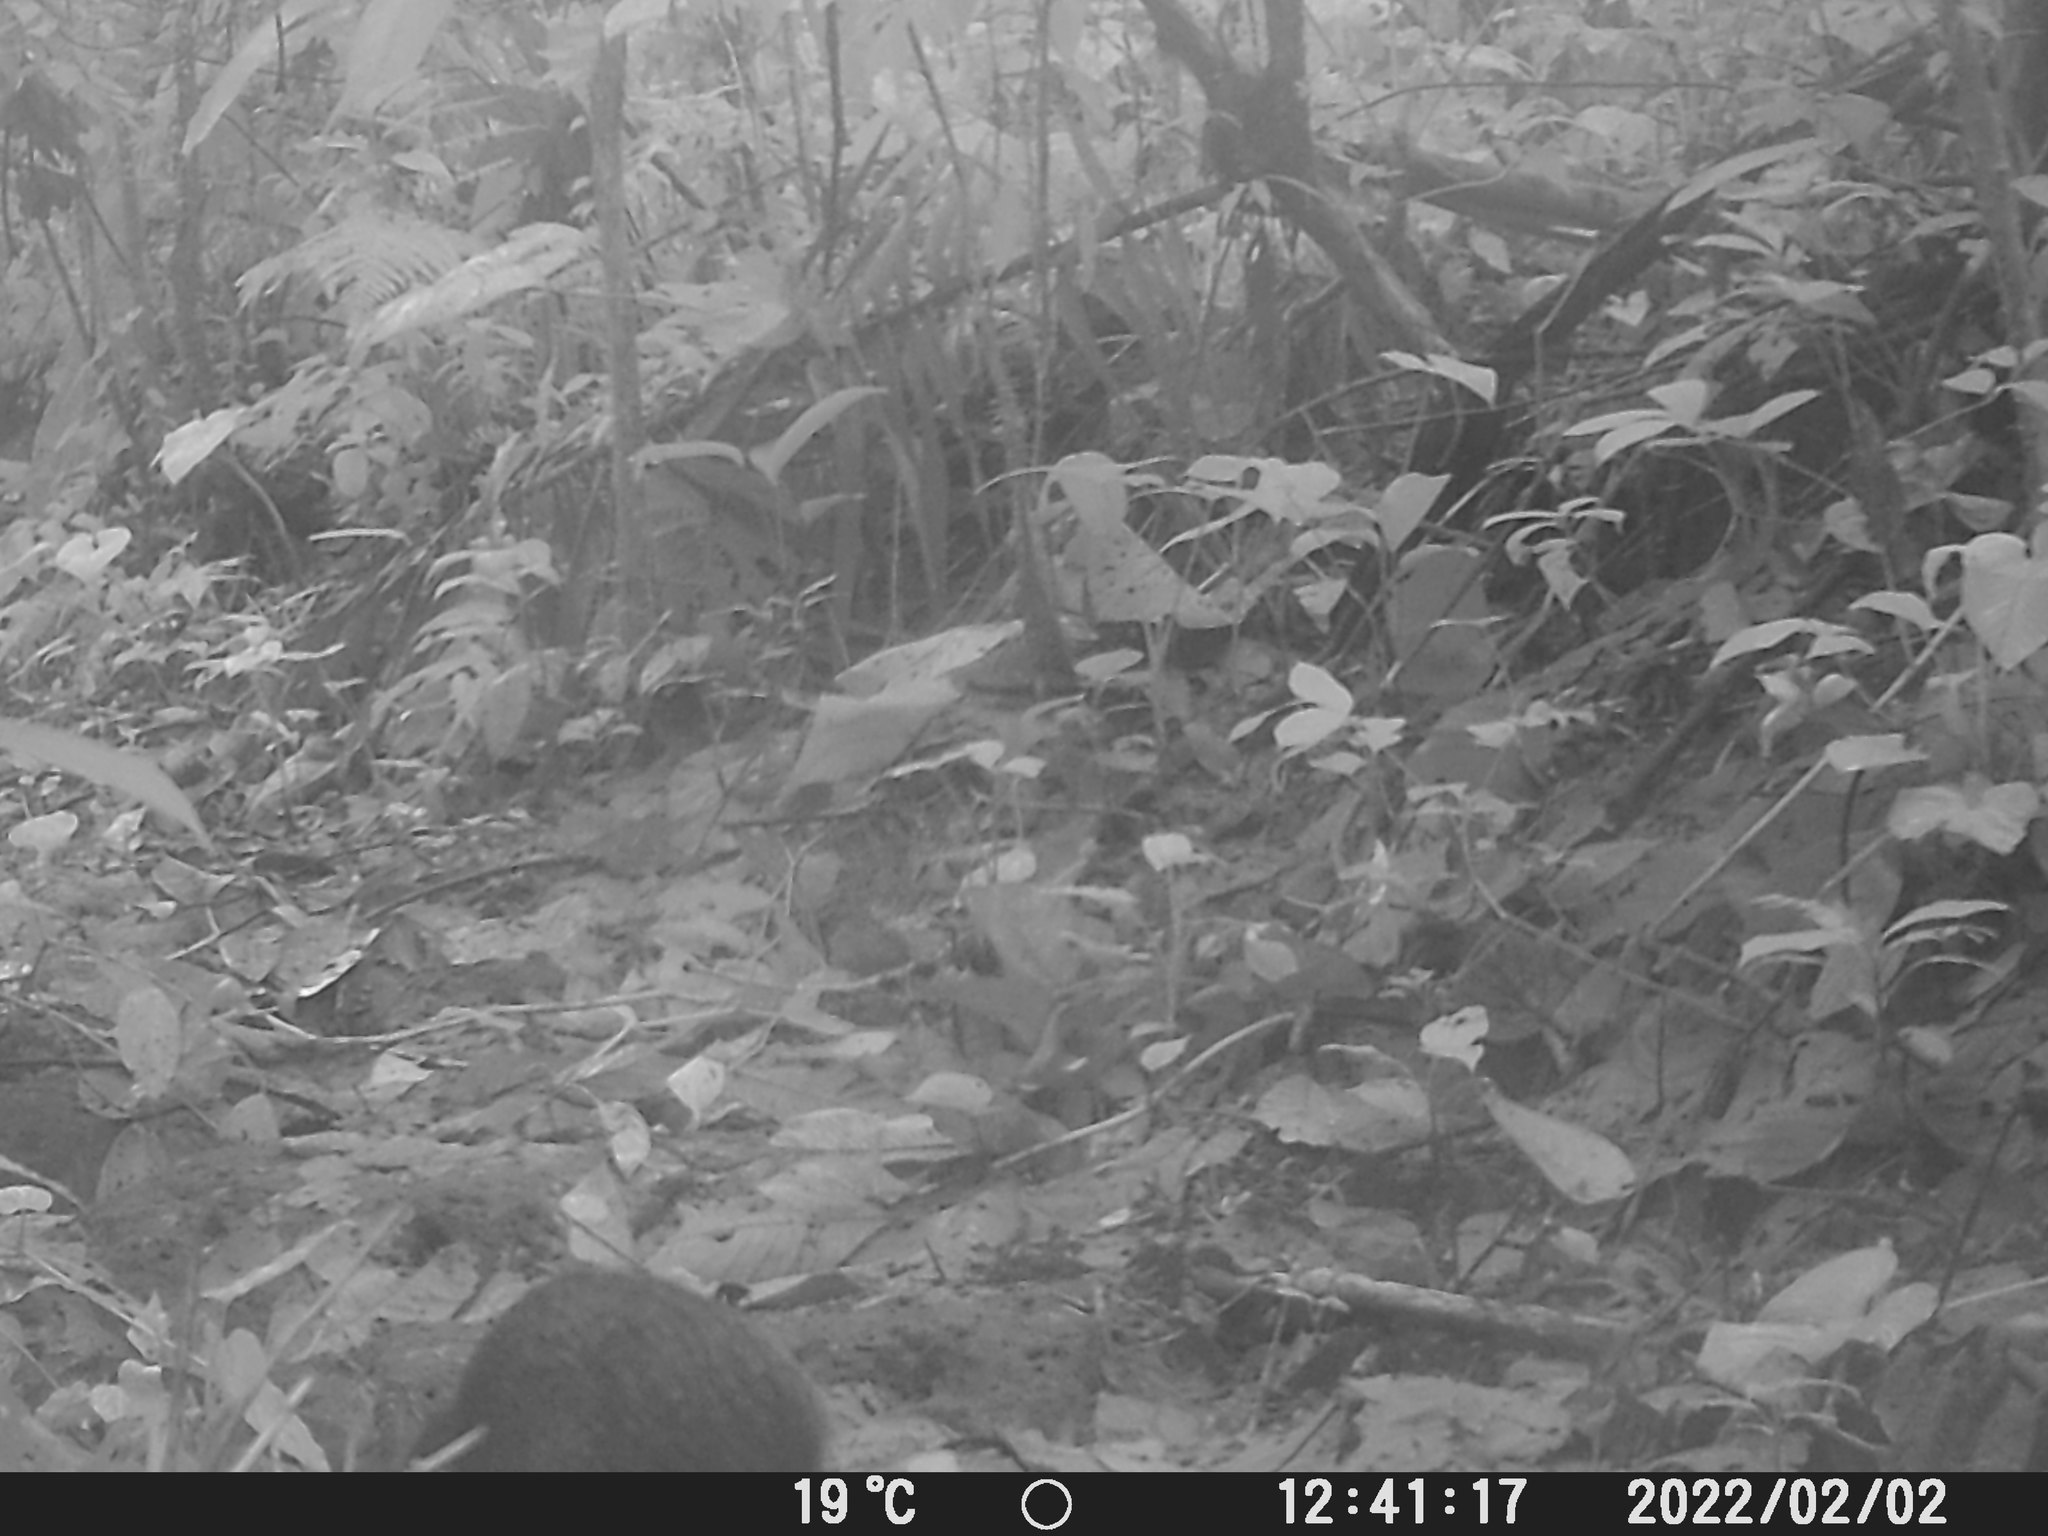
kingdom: Animalia
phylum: Chordata
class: Mammalia
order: Rodentia
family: Dasyproctidae
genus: Dasyprocta
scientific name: Dasyprocta punctata
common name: Central american agouti
